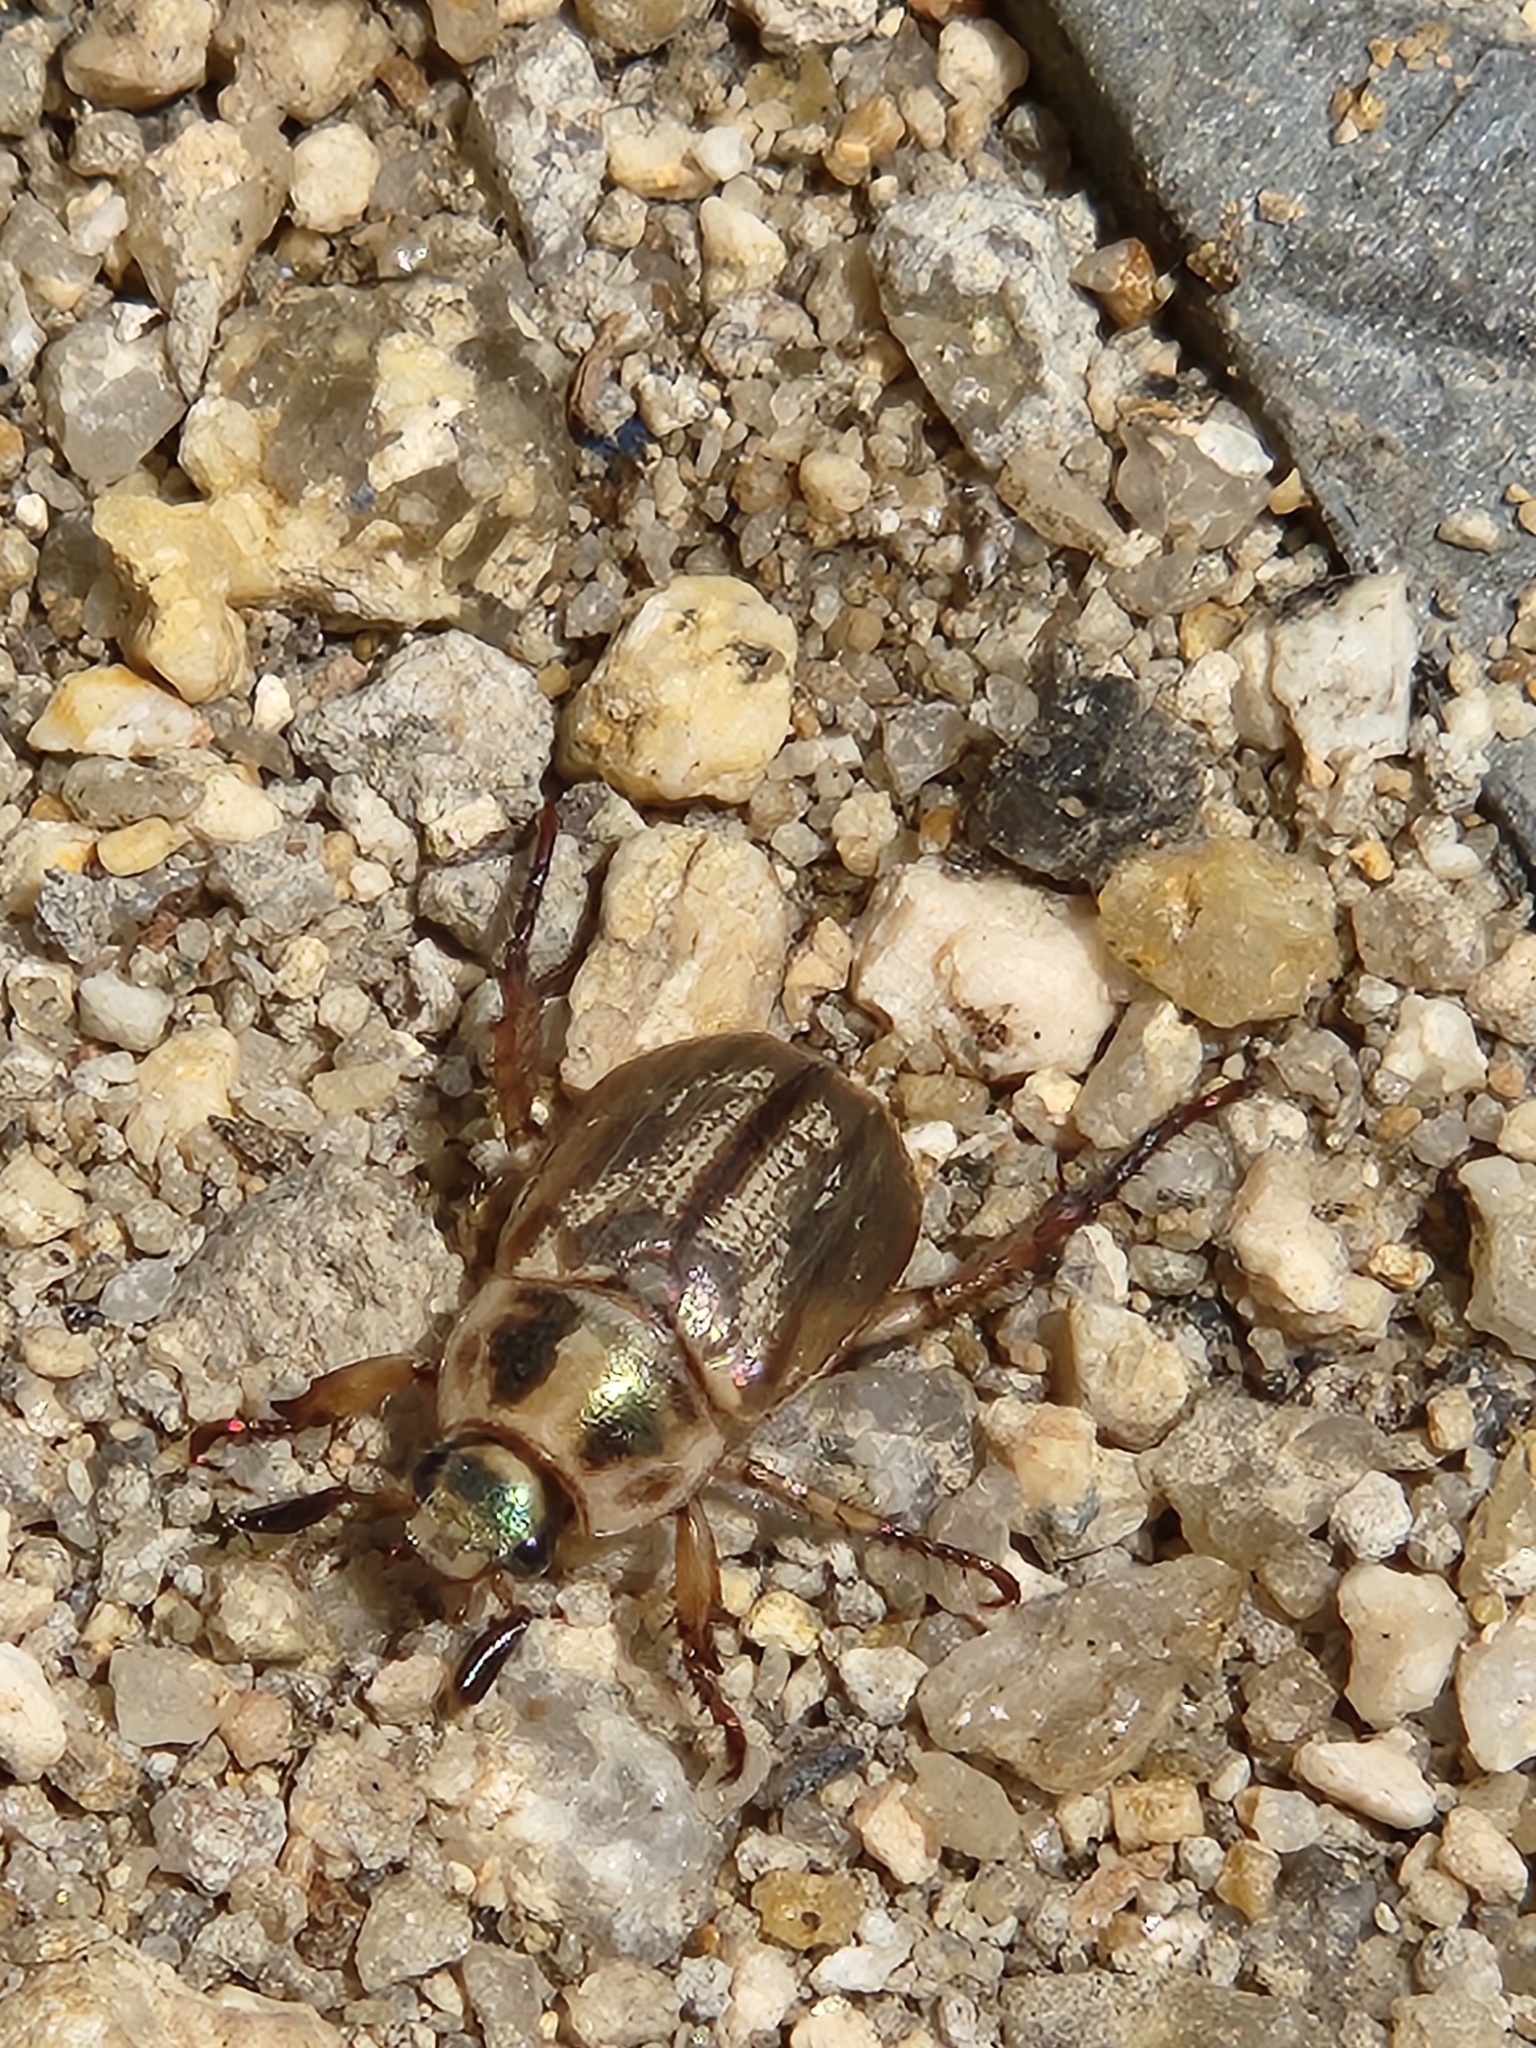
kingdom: Animalia
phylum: Arthropoda
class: Insecta
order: Coleoptera
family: Scarabaeidae
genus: Exomala
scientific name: Exomala orientalis
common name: Oriental beetle
